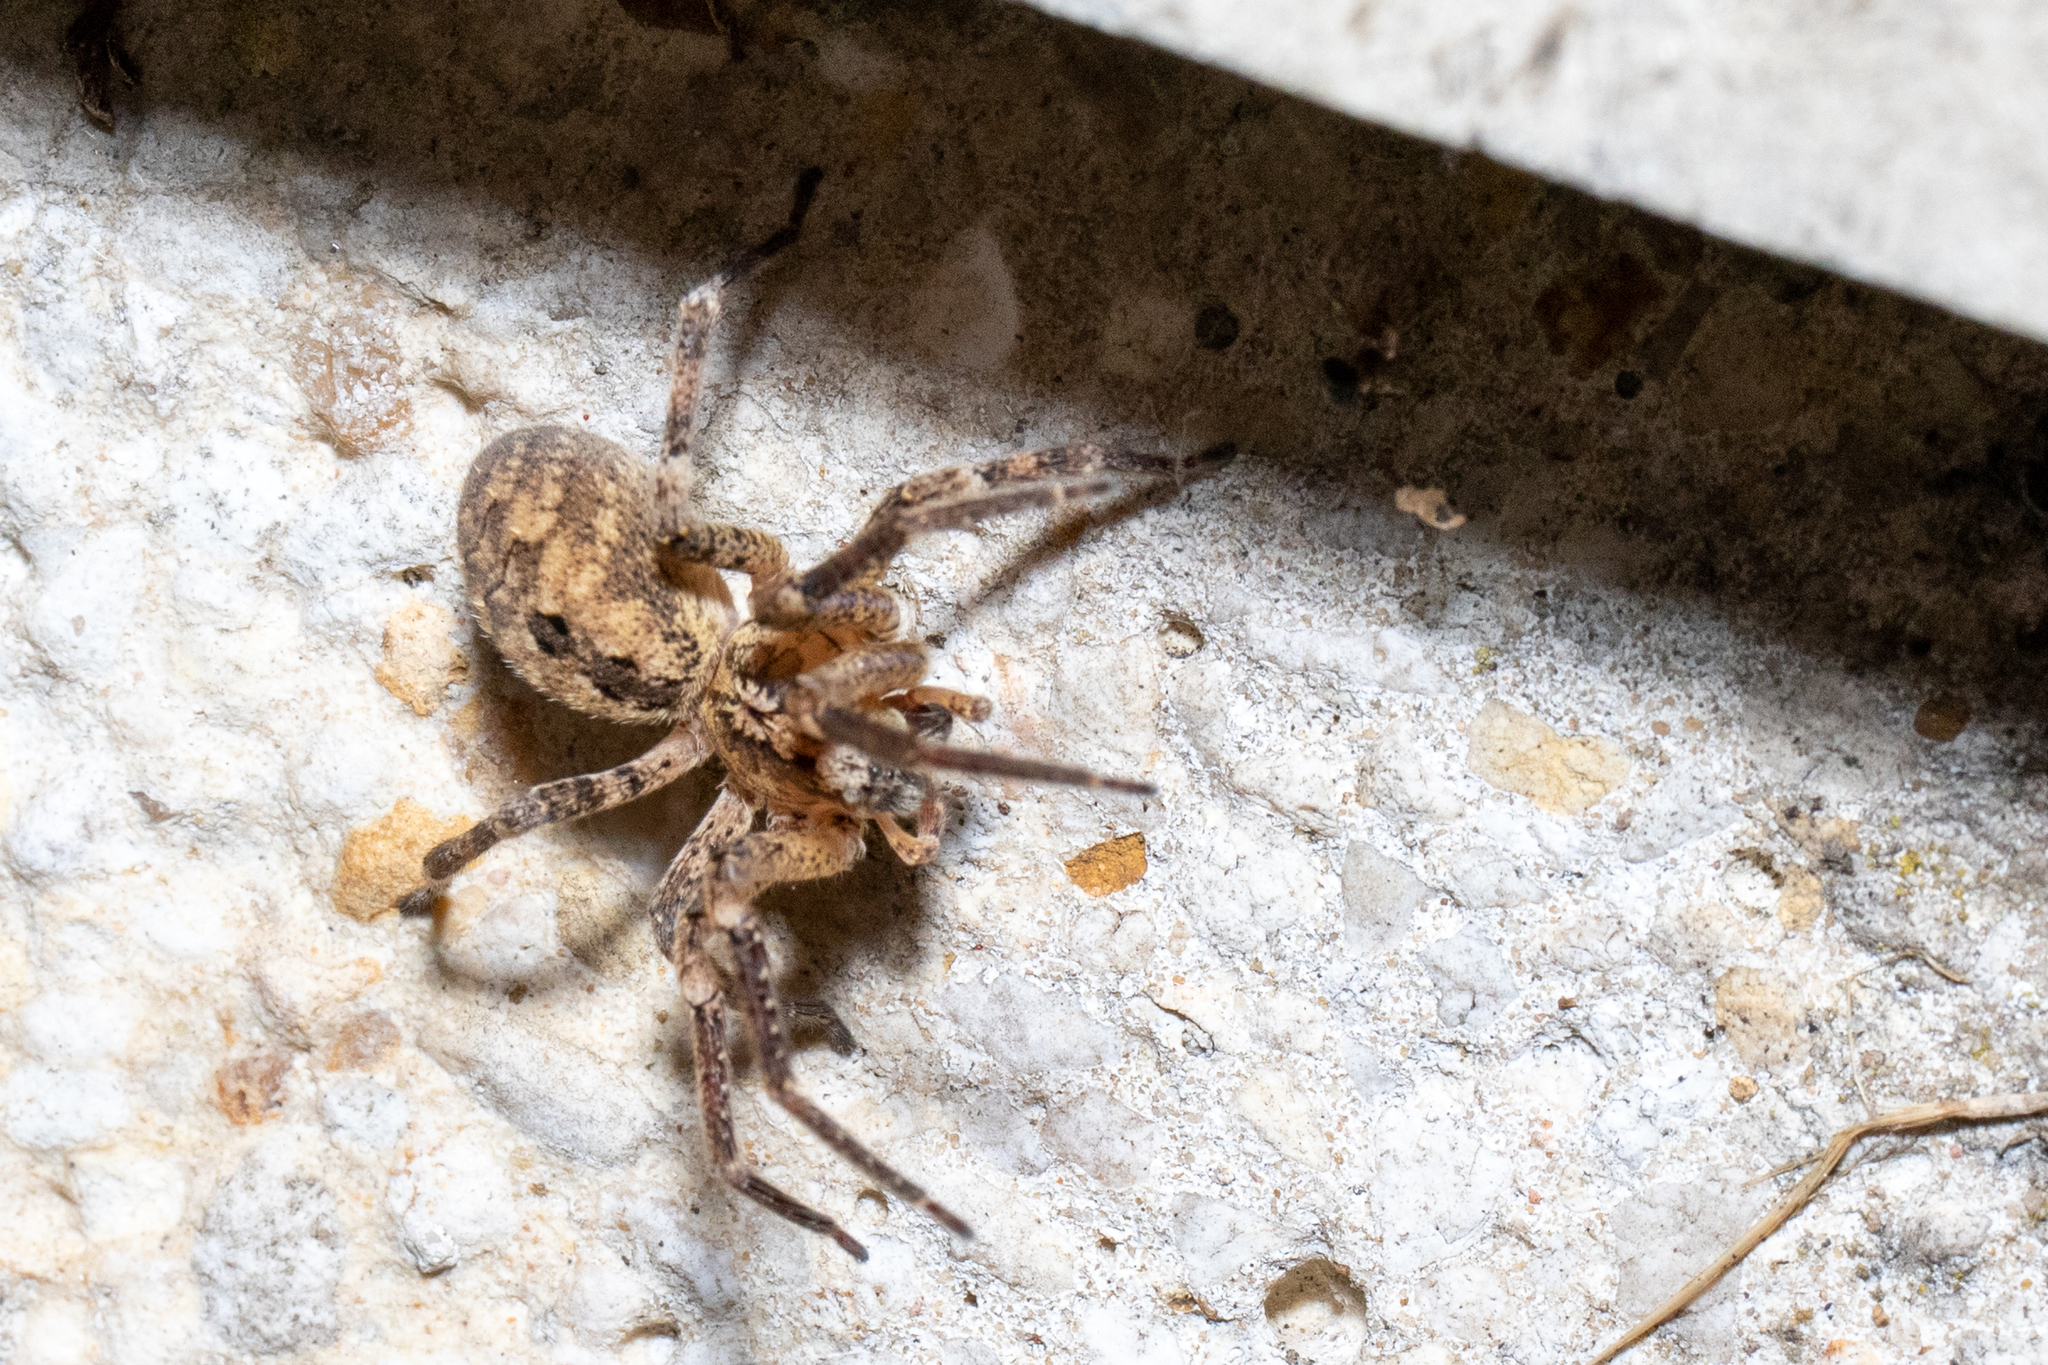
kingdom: Animalia
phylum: Arthropoda
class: Arachnida
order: Araneae
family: Zoropsidae
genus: Zoropsis
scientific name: Zoropsis spinimana
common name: Zoropsid spider
